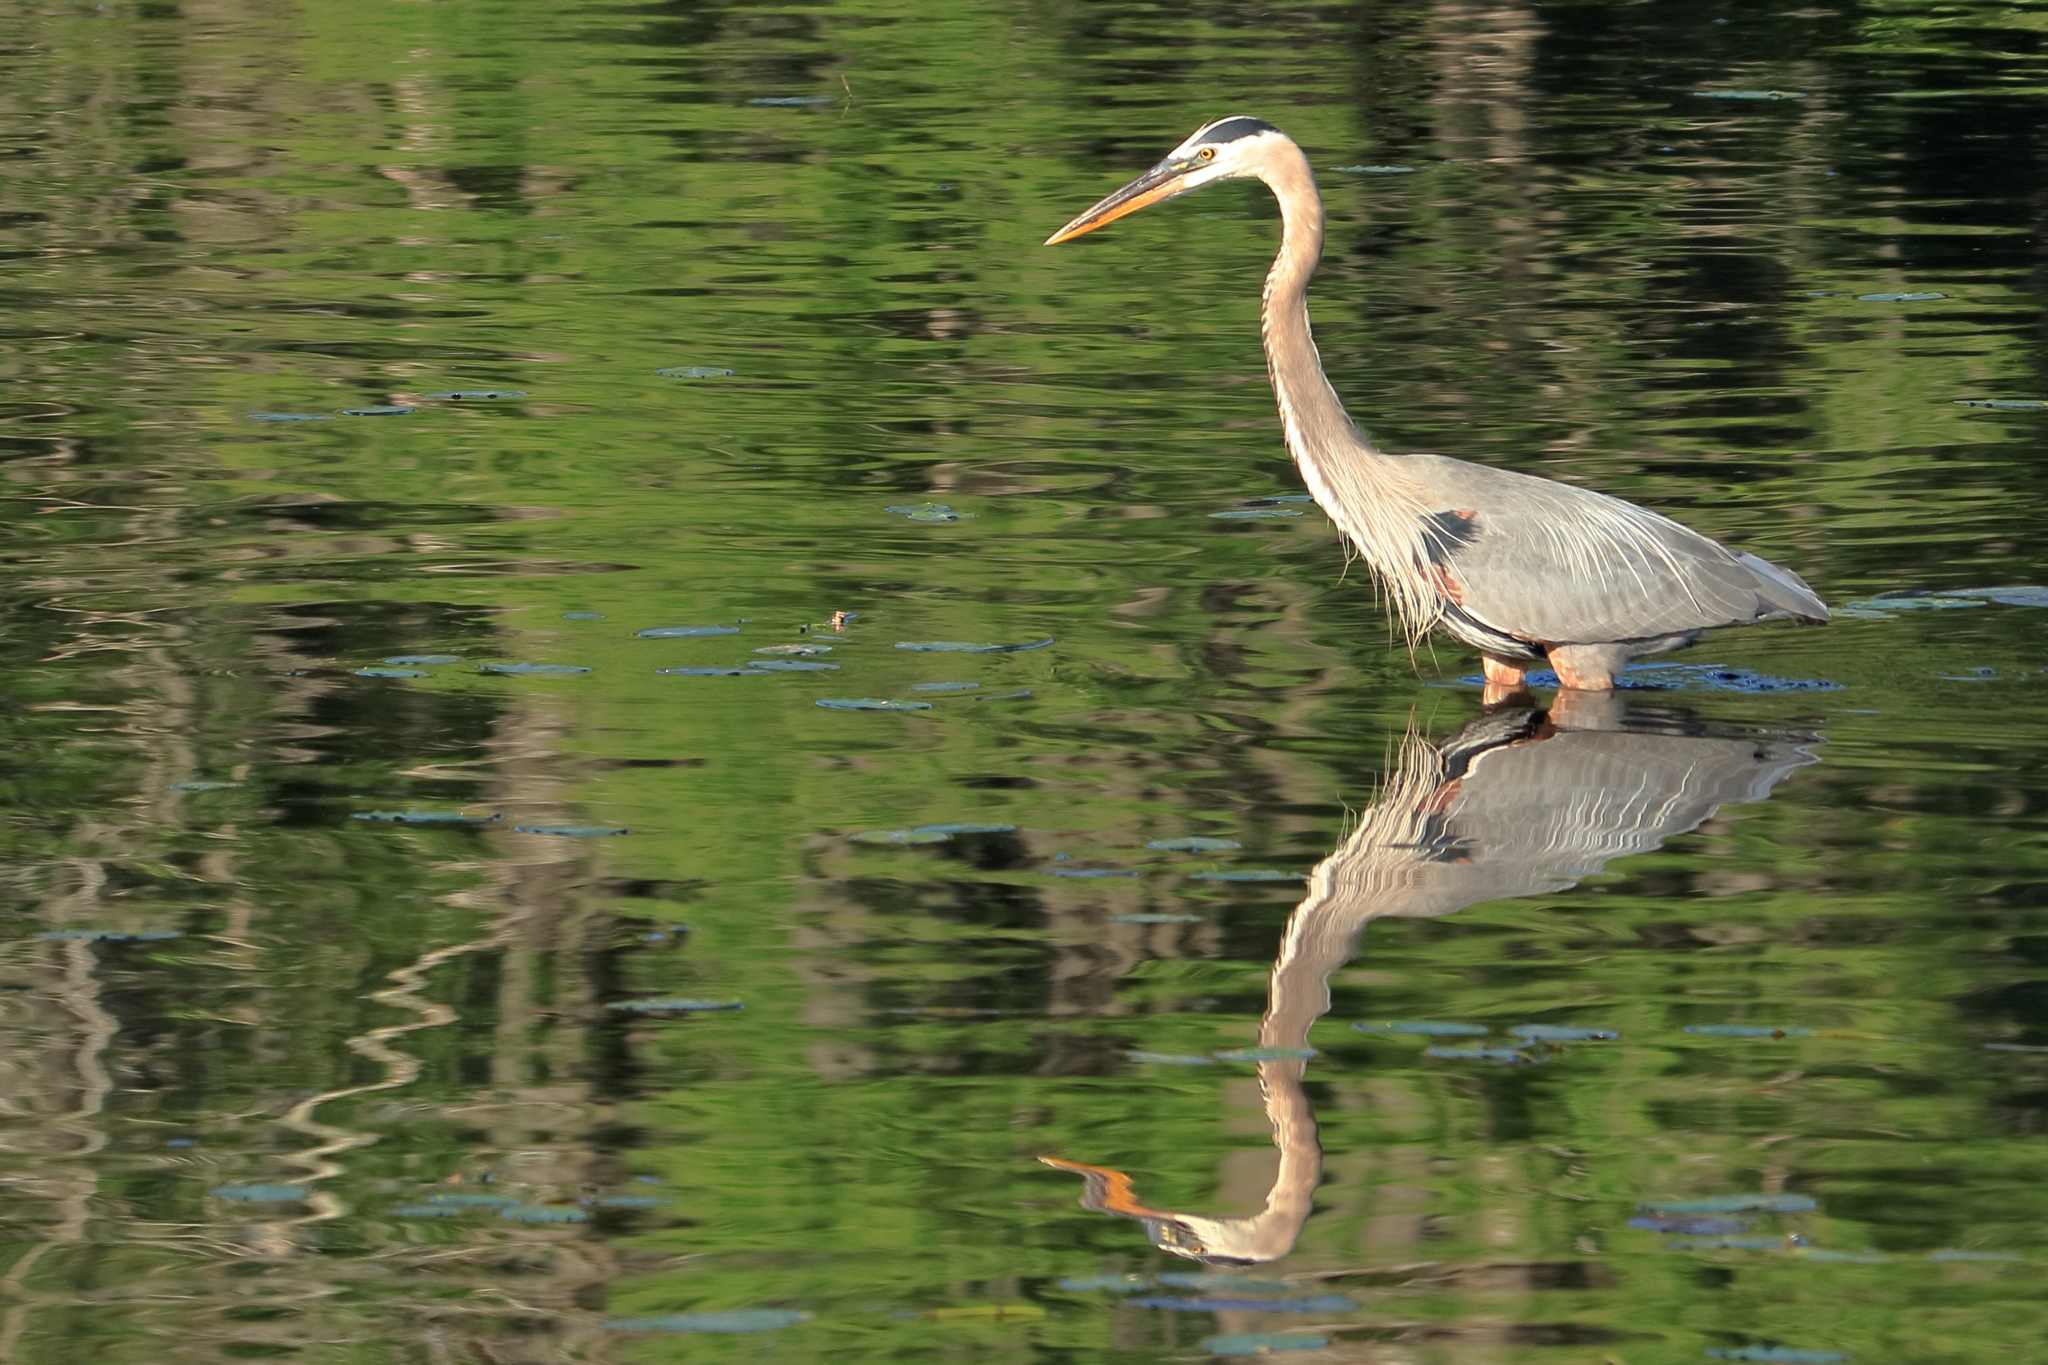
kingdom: Animalia
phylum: Chordata
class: Aves
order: Pelecaniformes
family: Ardeidae
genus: Ardea
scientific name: Ardea herodias
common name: Great blue heron
